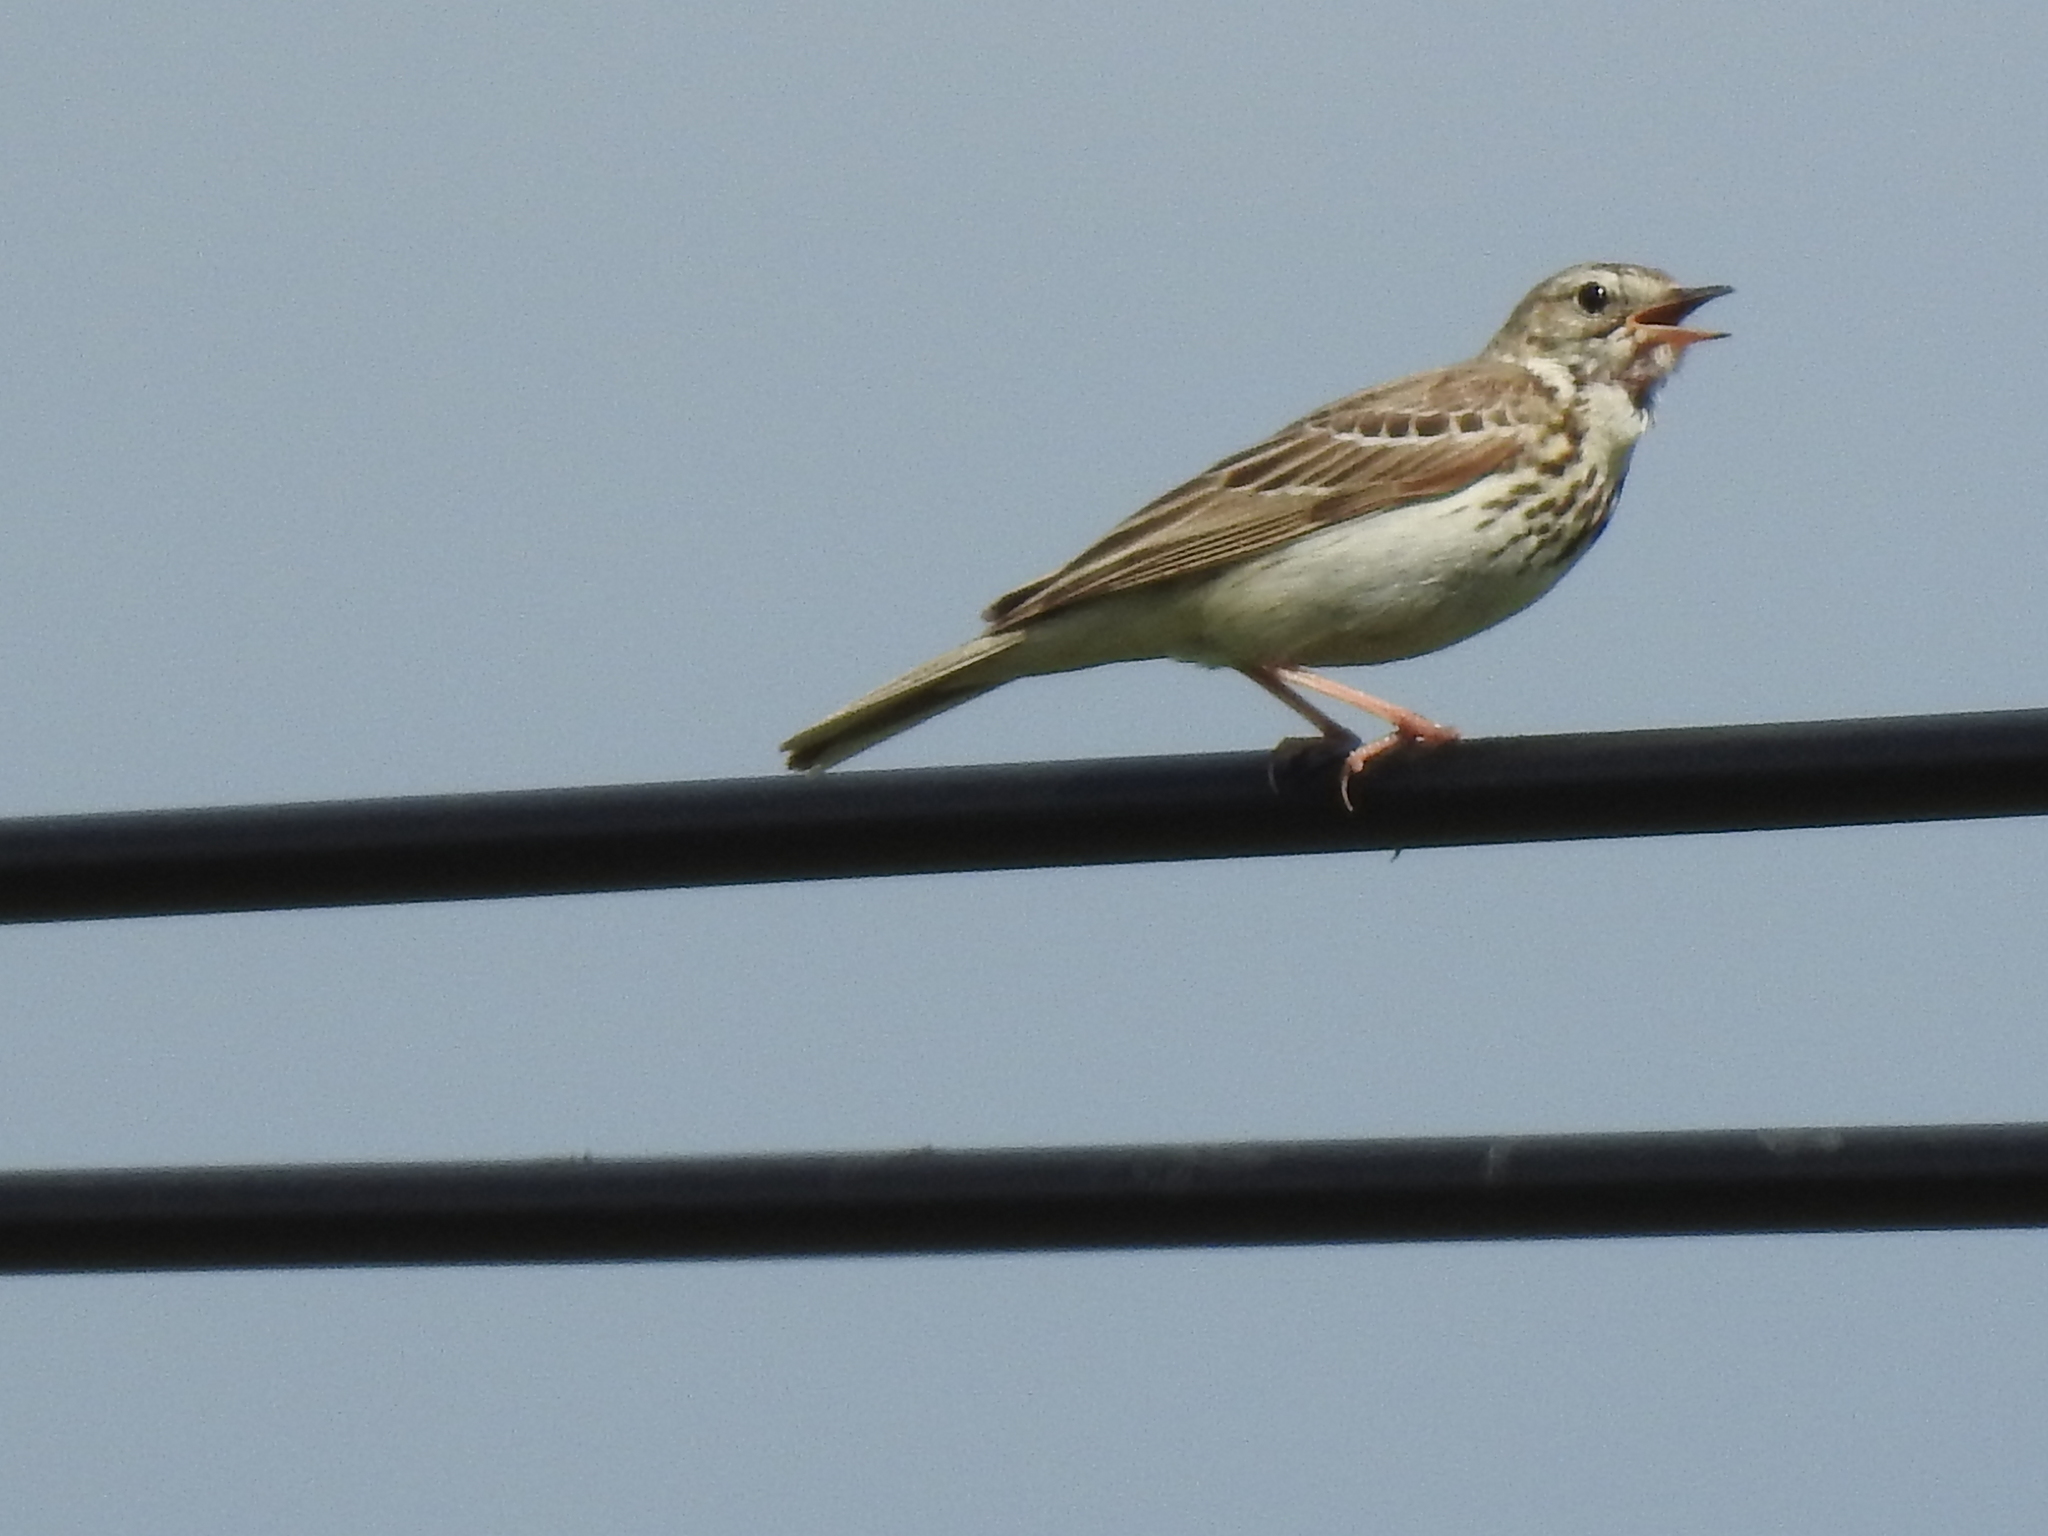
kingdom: Animalia
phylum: Chordata
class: Aves
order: Passeriformes
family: Motacillidae
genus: Anthus
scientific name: Anthus trivialis
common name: Tree pipit
